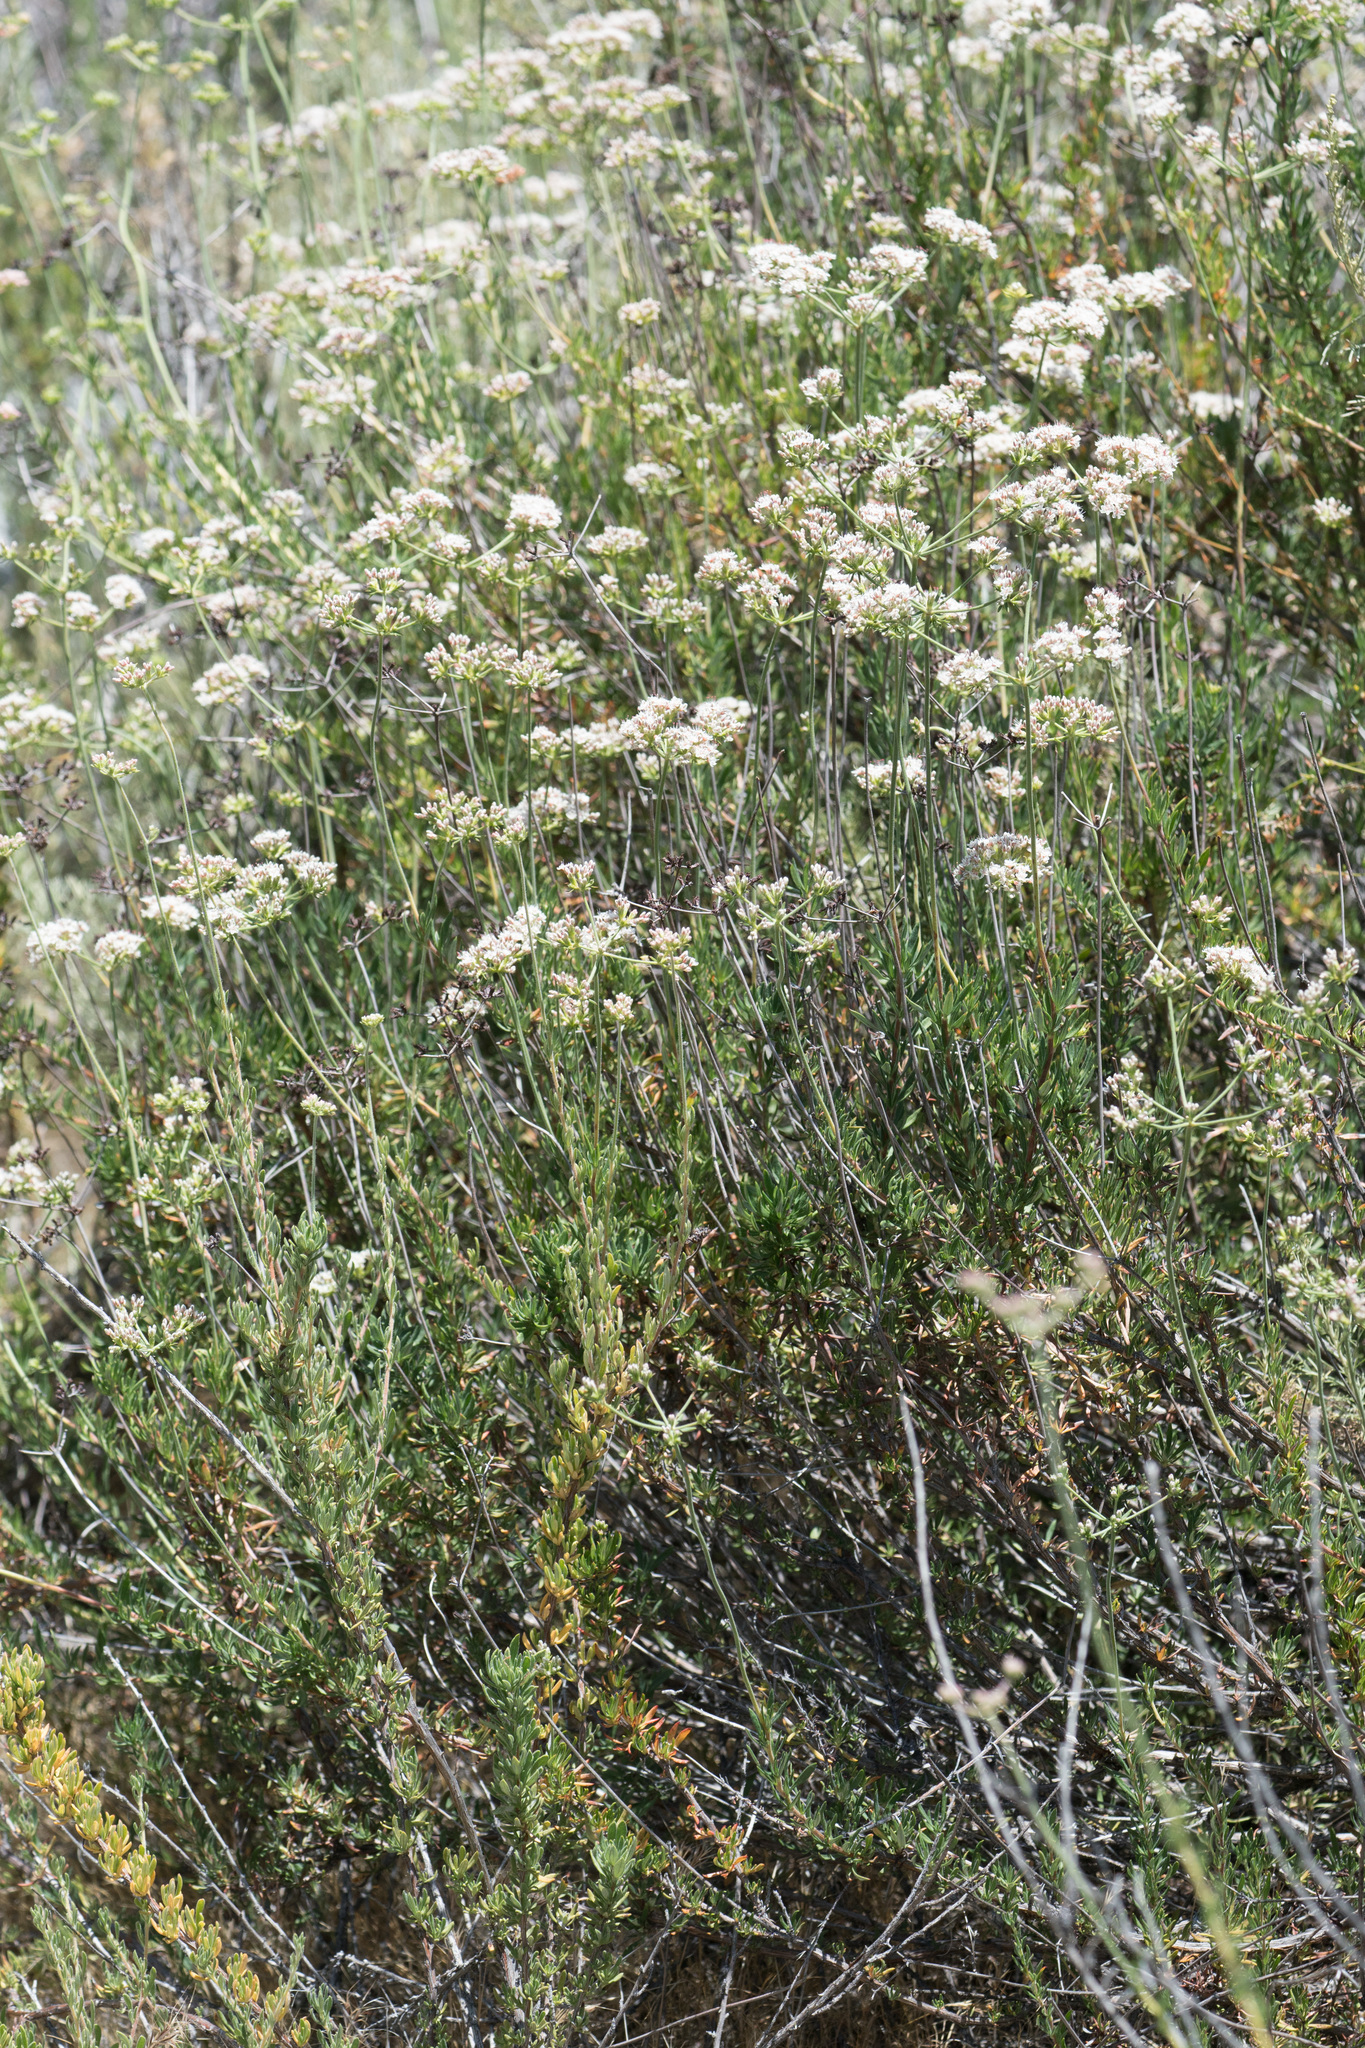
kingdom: Plantae
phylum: Tracheophyta
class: Magnoliopsida
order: Caryophyllales
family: Polygonaceae
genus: Eriogonum
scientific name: Eriogonum fasciculatum
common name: California wild buckwheat
